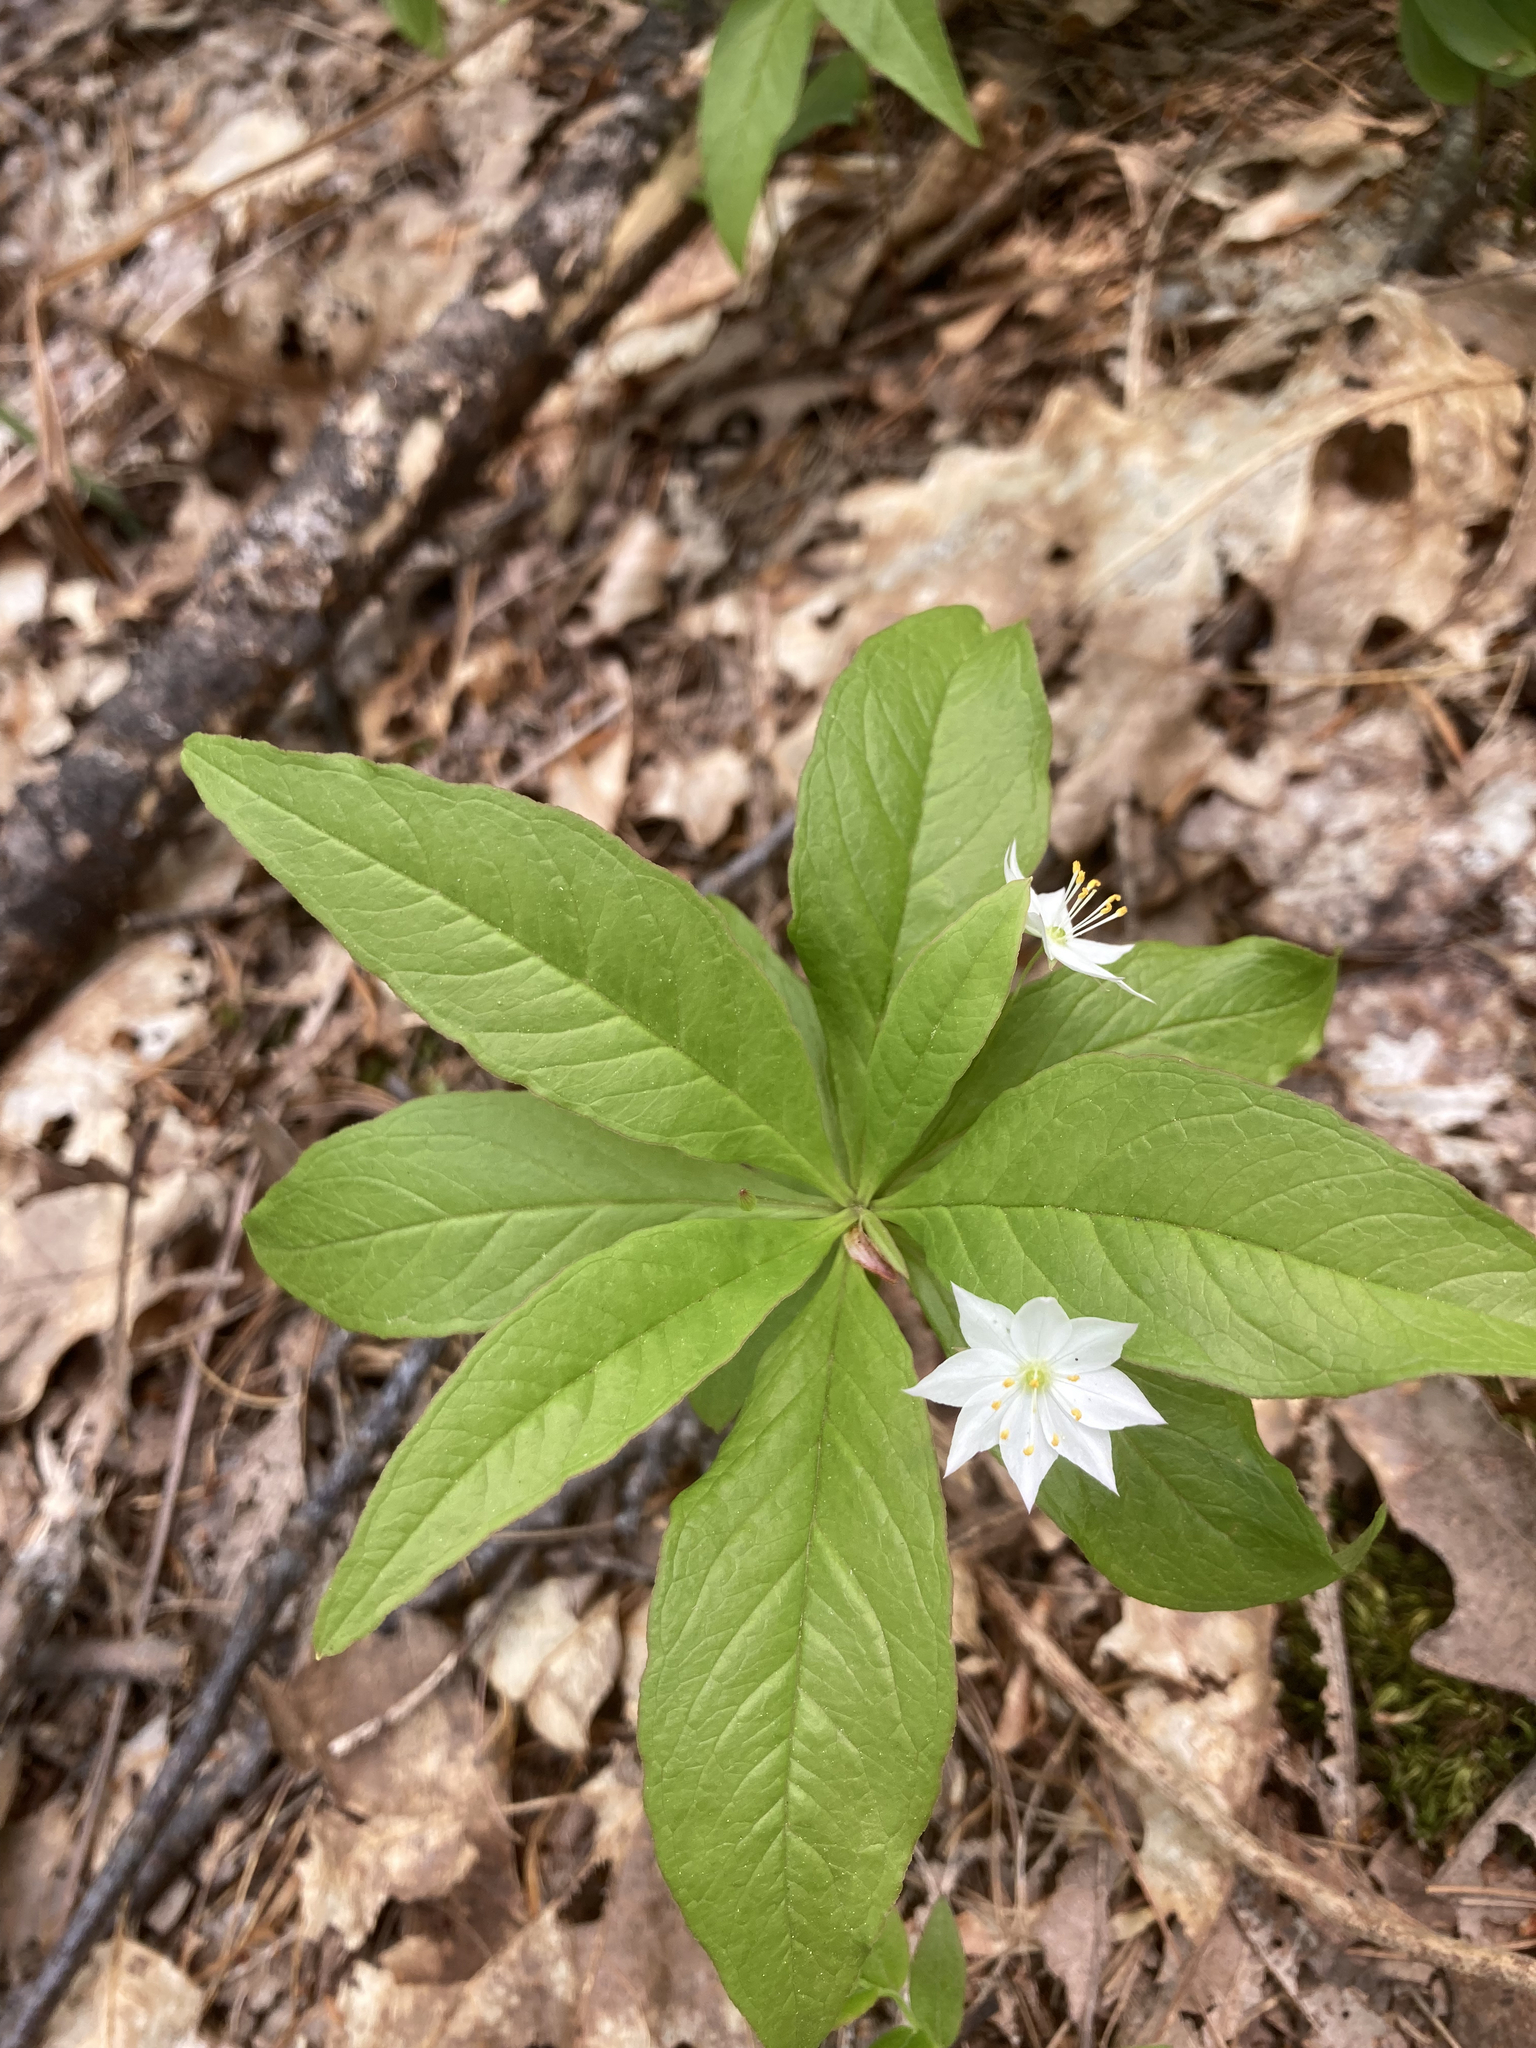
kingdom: Plantae
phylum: Tracheophyta
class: Magnoliopsida
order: Ericales
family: Primulaceae
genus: Lysimachia
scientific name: Lysimachia borealis
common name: American starflower
